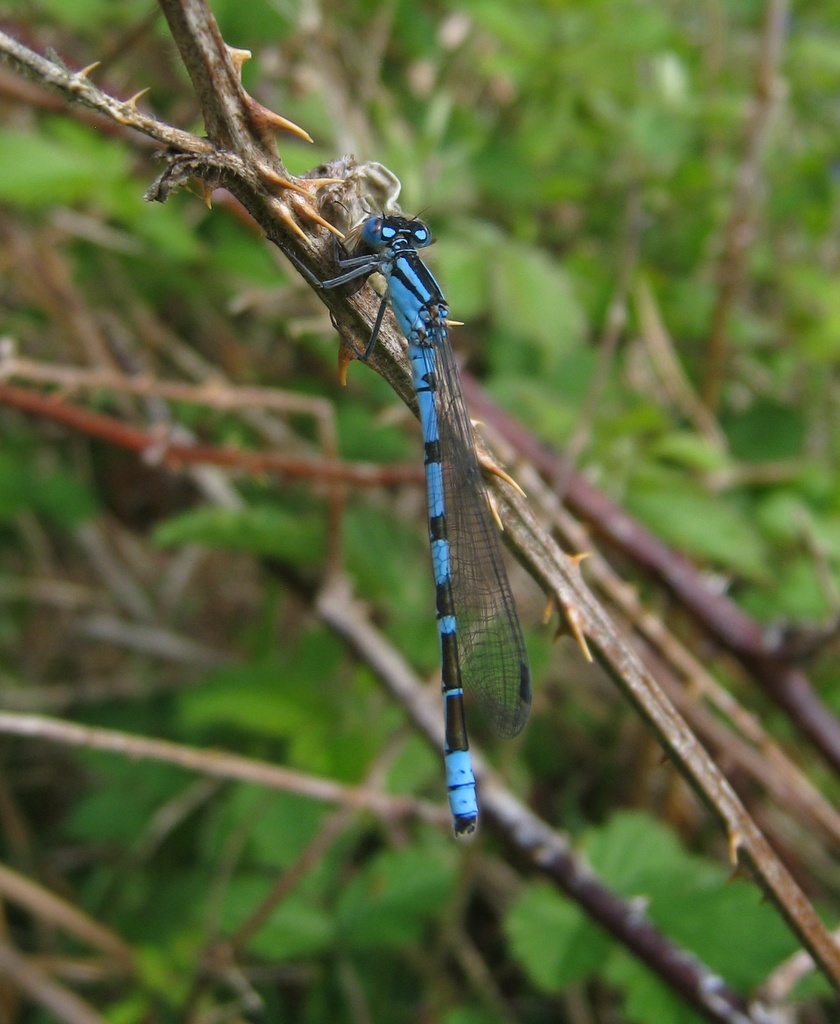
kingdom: Animalia
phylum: Arthropoda
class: Insecta
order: Odonata
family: Coenagrionidae
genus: Enallagma
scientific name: Enallagma cyathigerum
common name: Common blue damselfly
